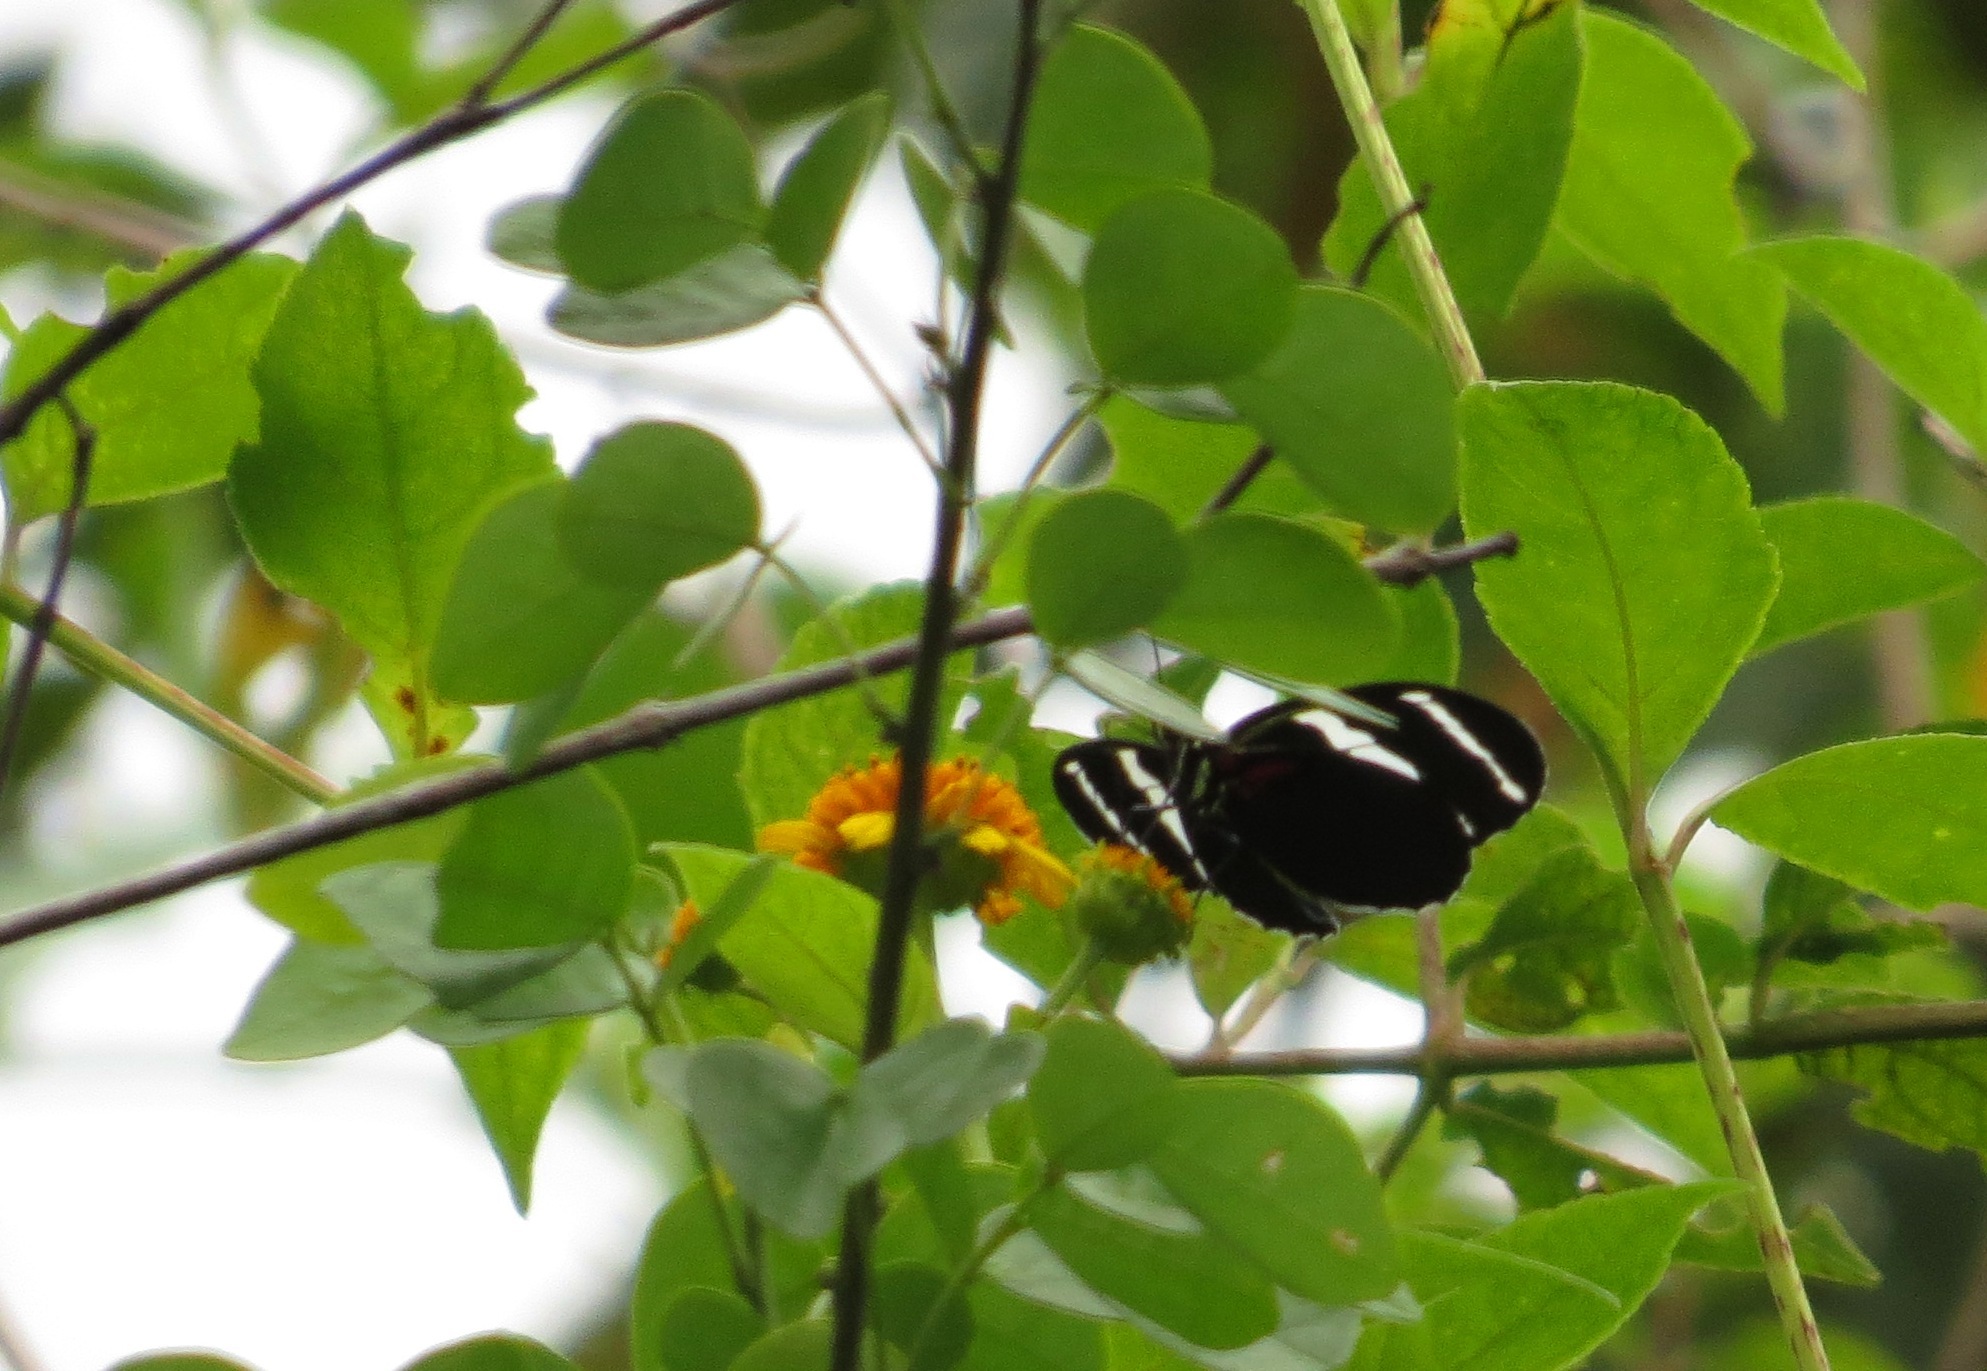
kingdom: Animalia
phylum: Arthropoda
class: Insecta
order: Lepidoptera
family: Nymphalidae
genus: Heliconius
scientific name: Heliconius antiochus
